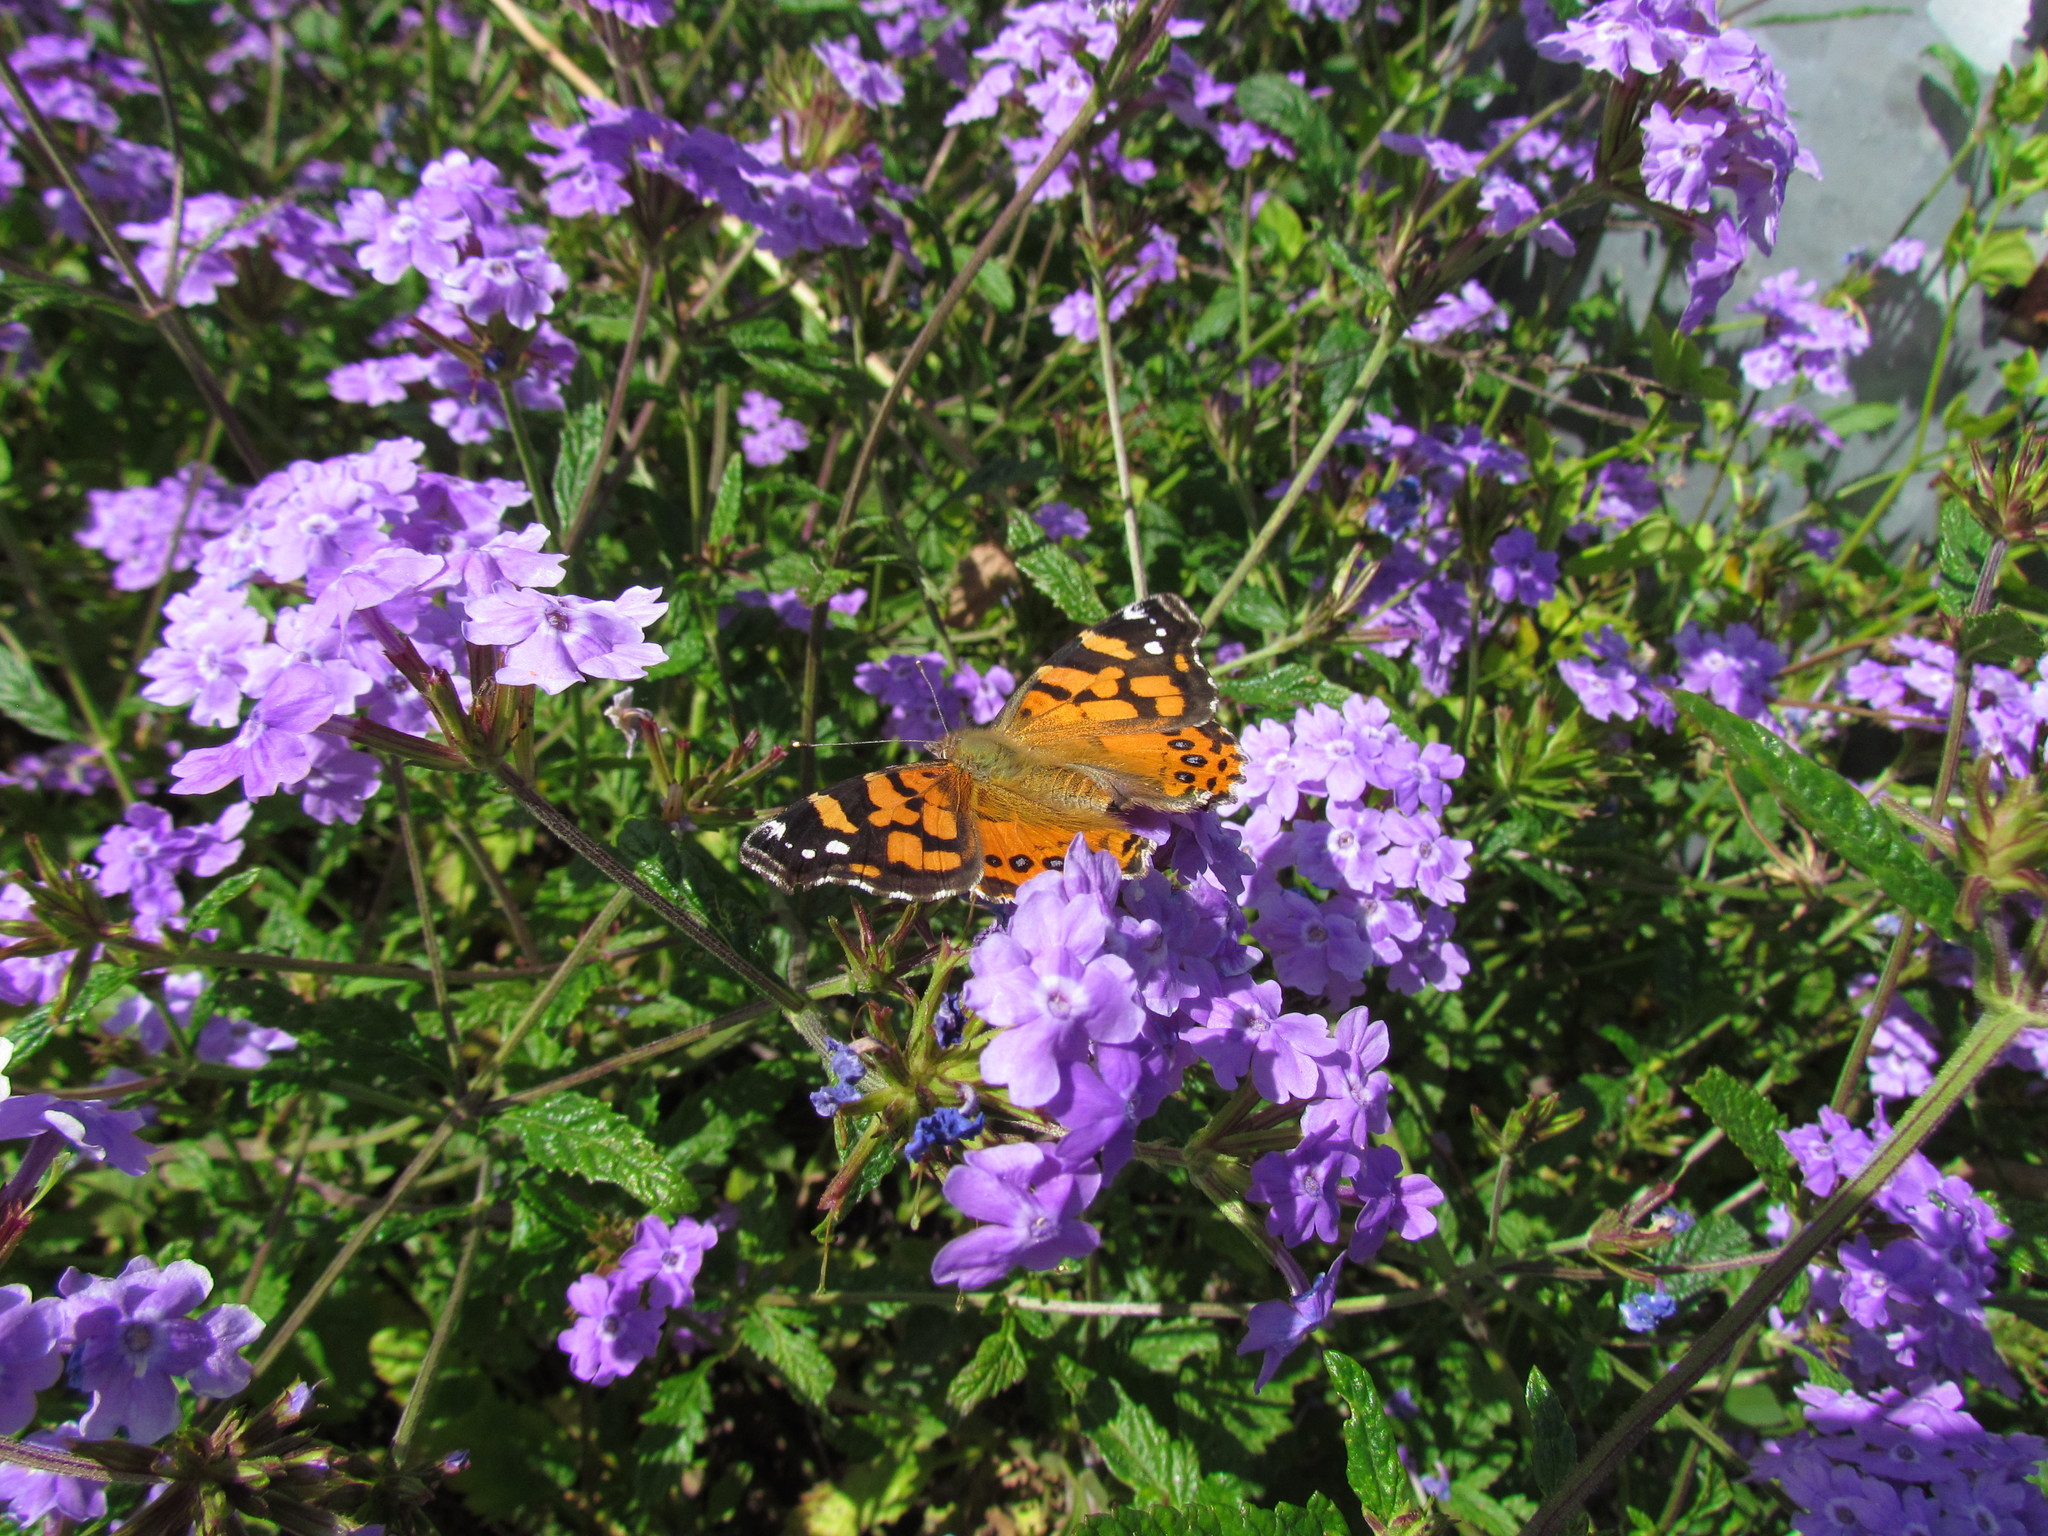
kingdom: Animalia
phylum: Arthropoda
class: Insecta
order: Lepidoptera
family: Nymphalidae
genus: Vanessa
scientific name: Vanessa carye
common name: Subtropical lady
